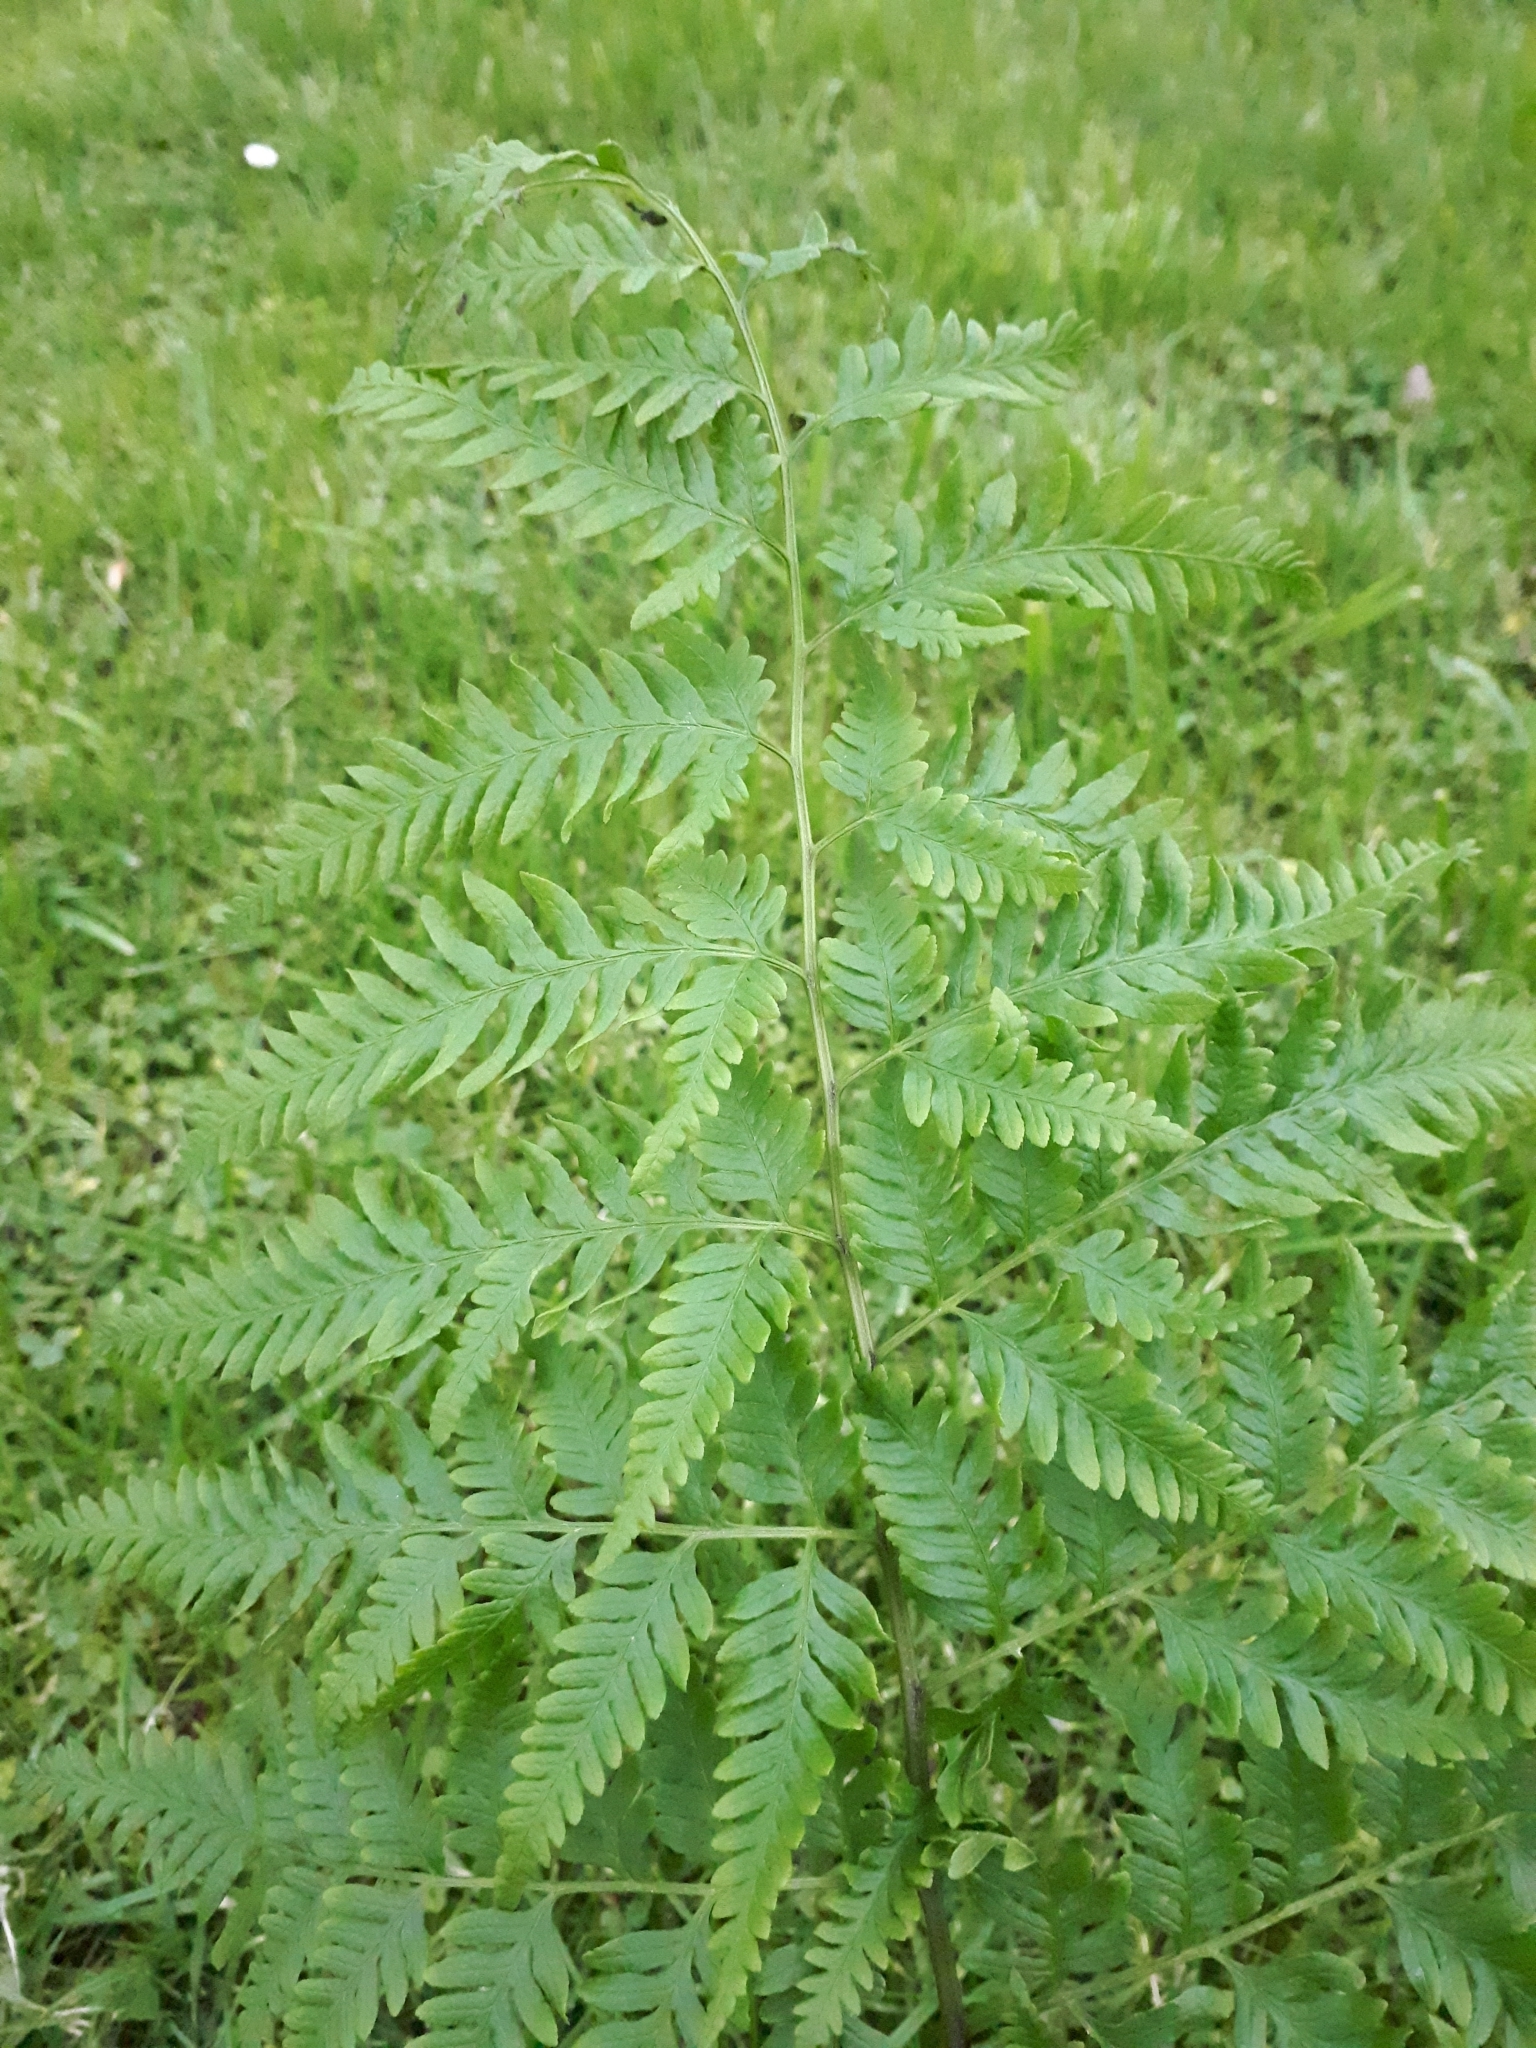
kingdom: Plantae
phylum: Tracheophyta
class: Polypodiopsida
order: Polypodiales
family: Pteridaceae
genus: Pteris
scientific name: Pteris tremula
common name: Australian brake
